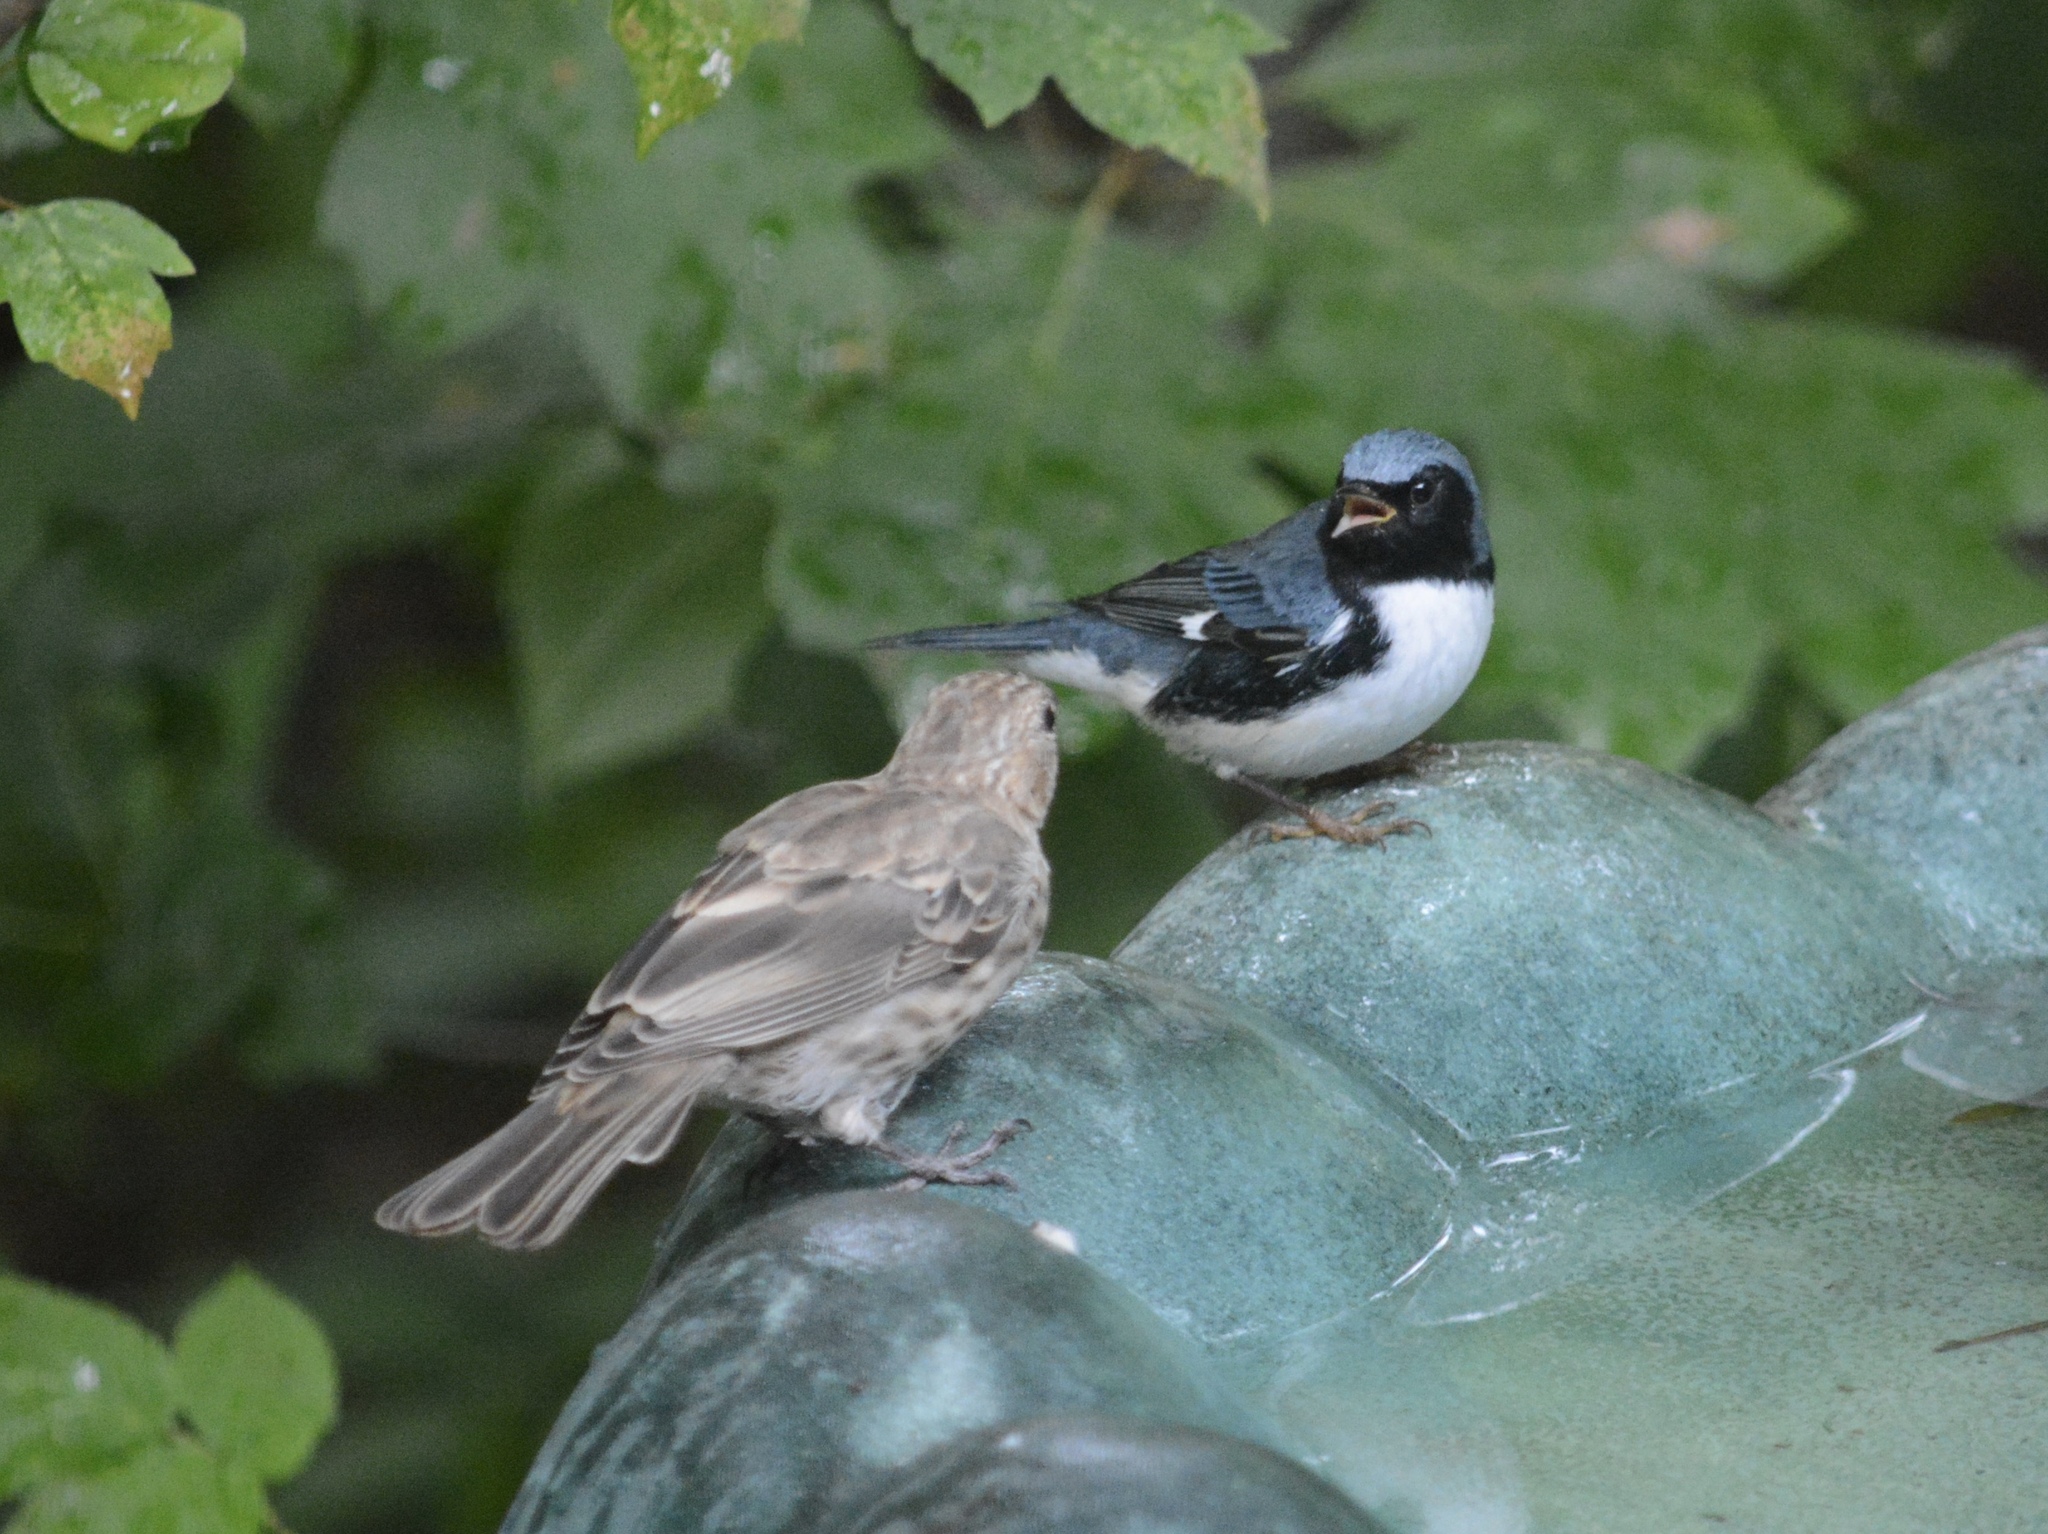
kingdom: Animalia
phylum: Chordata
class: Aves
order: Passeriformes
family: Parulidae
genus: Setophaga
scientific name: Setophaga caerulescens
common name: Black-throated blue warbler
